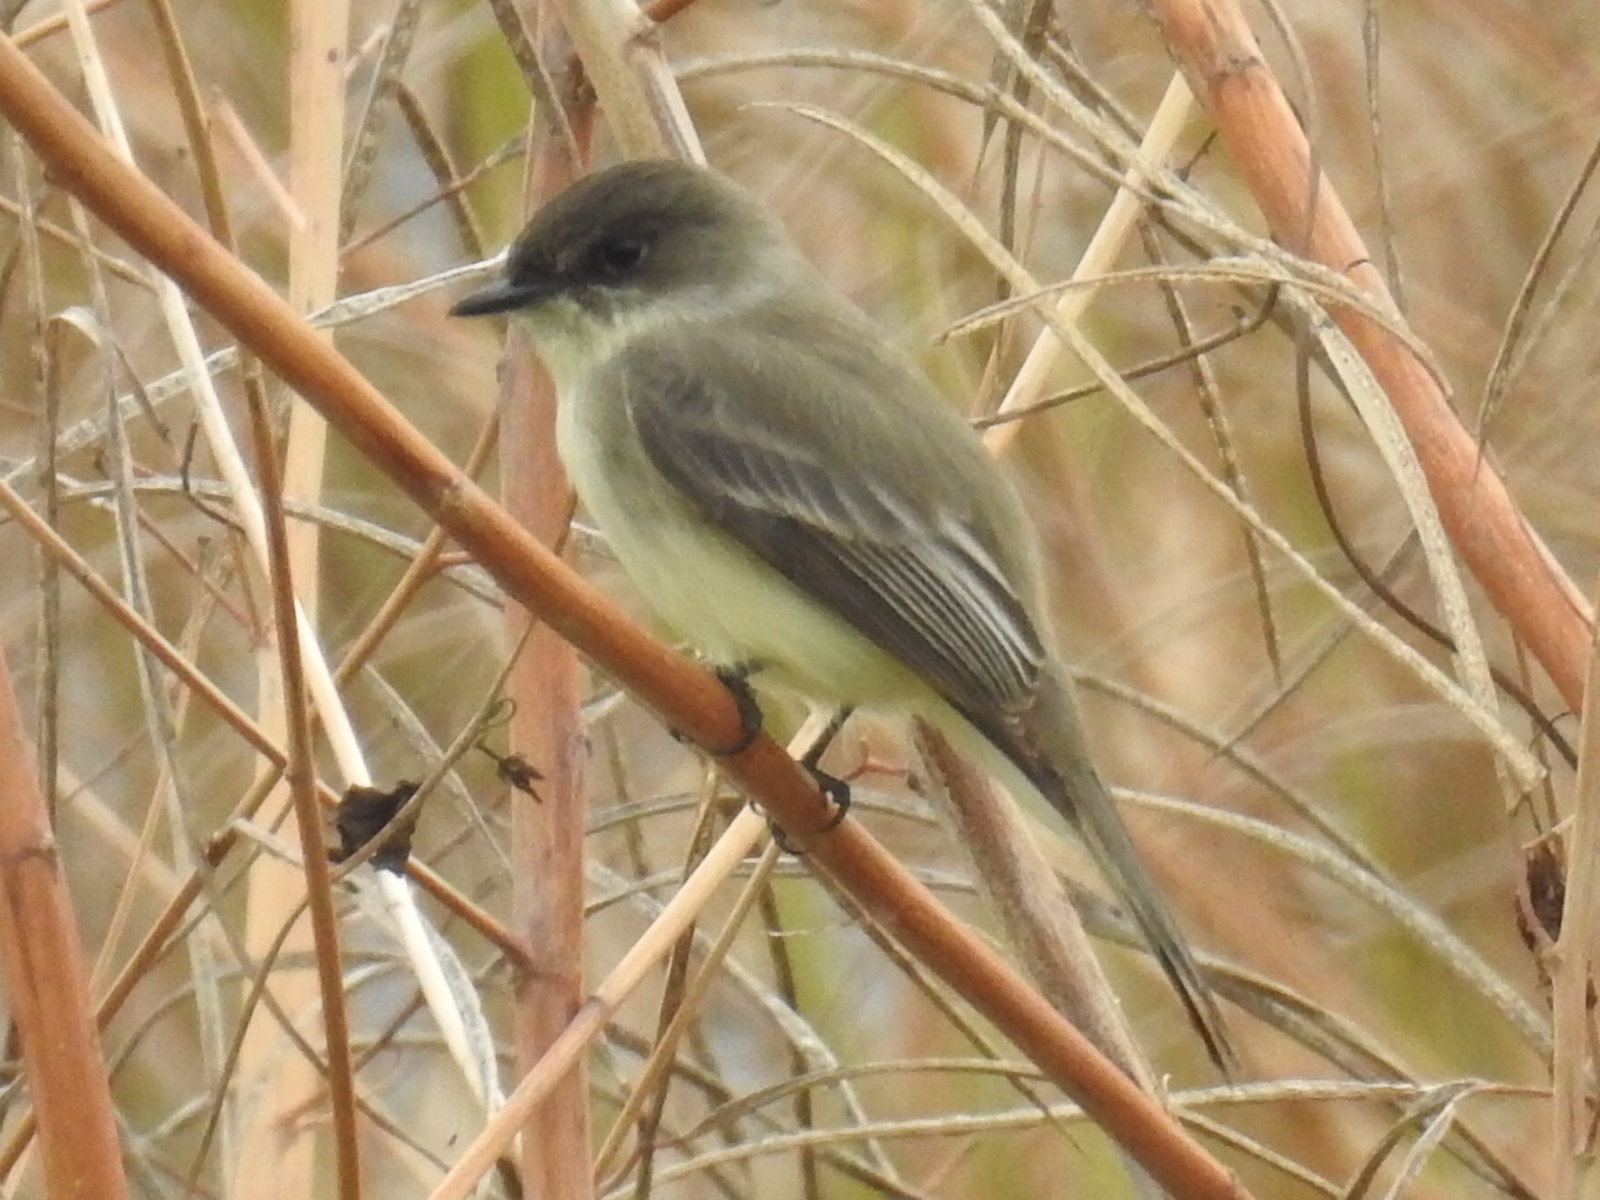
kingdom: Animalia
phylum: Chordata
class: Aves
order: Passeriformes
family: Tyrannidae
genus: Sayornis
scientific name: Sayornis phoebe
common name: Eastern phoebe
